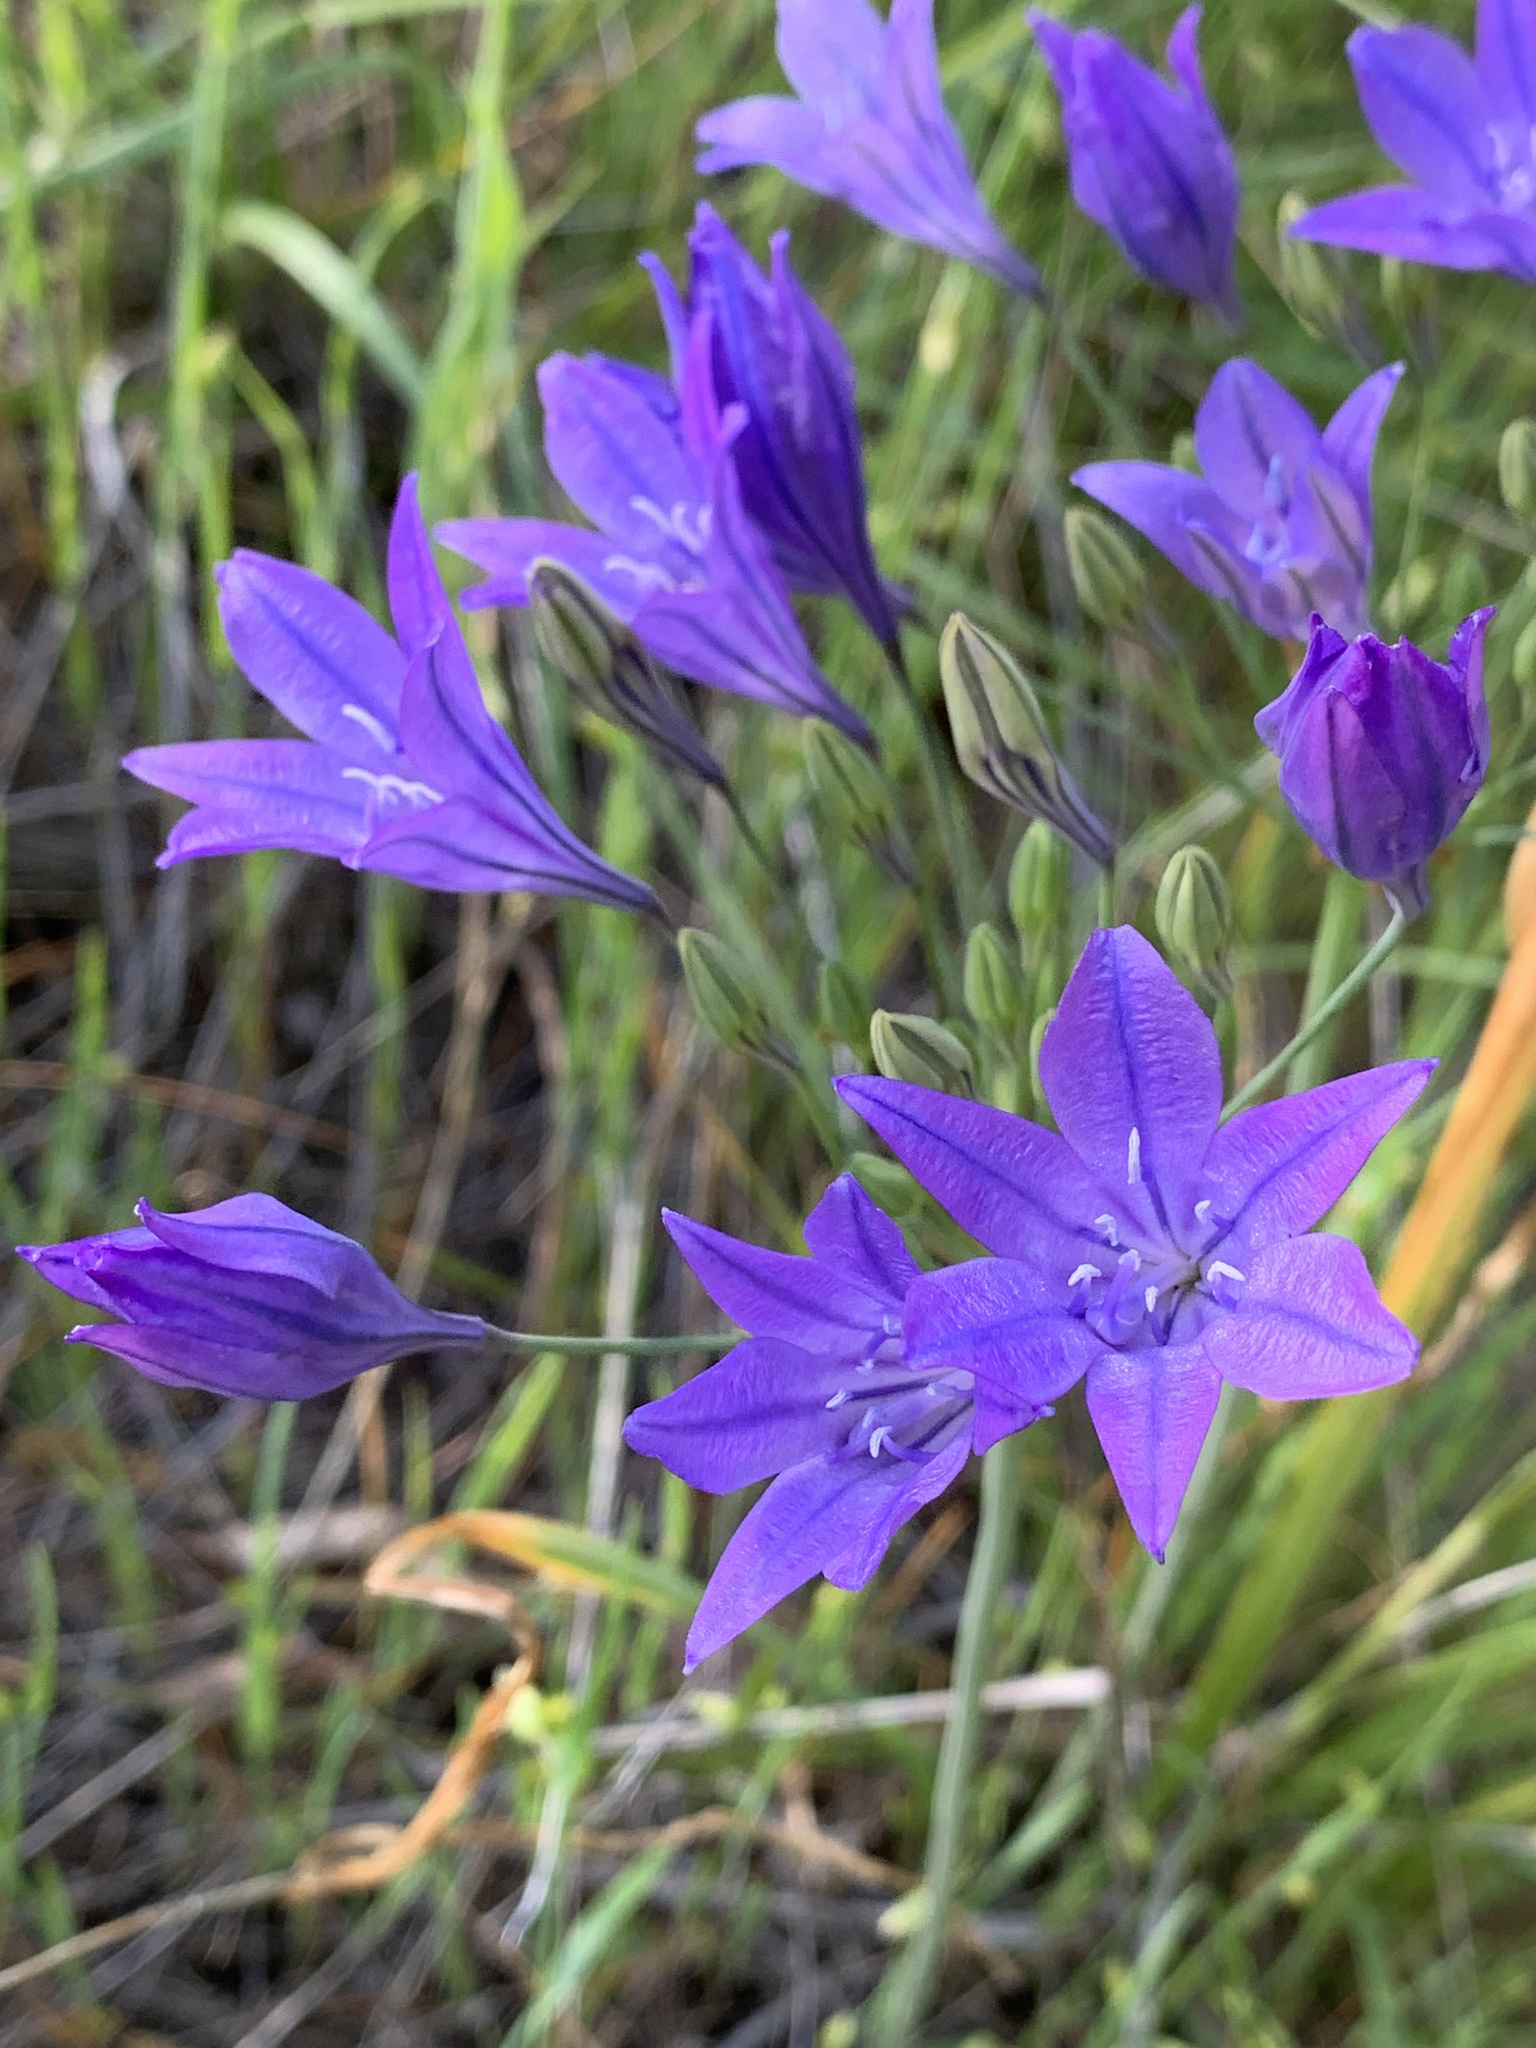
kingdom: Plantae
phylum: Tracheophyta
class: Liliopsida
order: Asparagales
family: Asparagaceae
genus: Triteleia
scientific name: Triteleia laxa
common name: Triplet-lily
